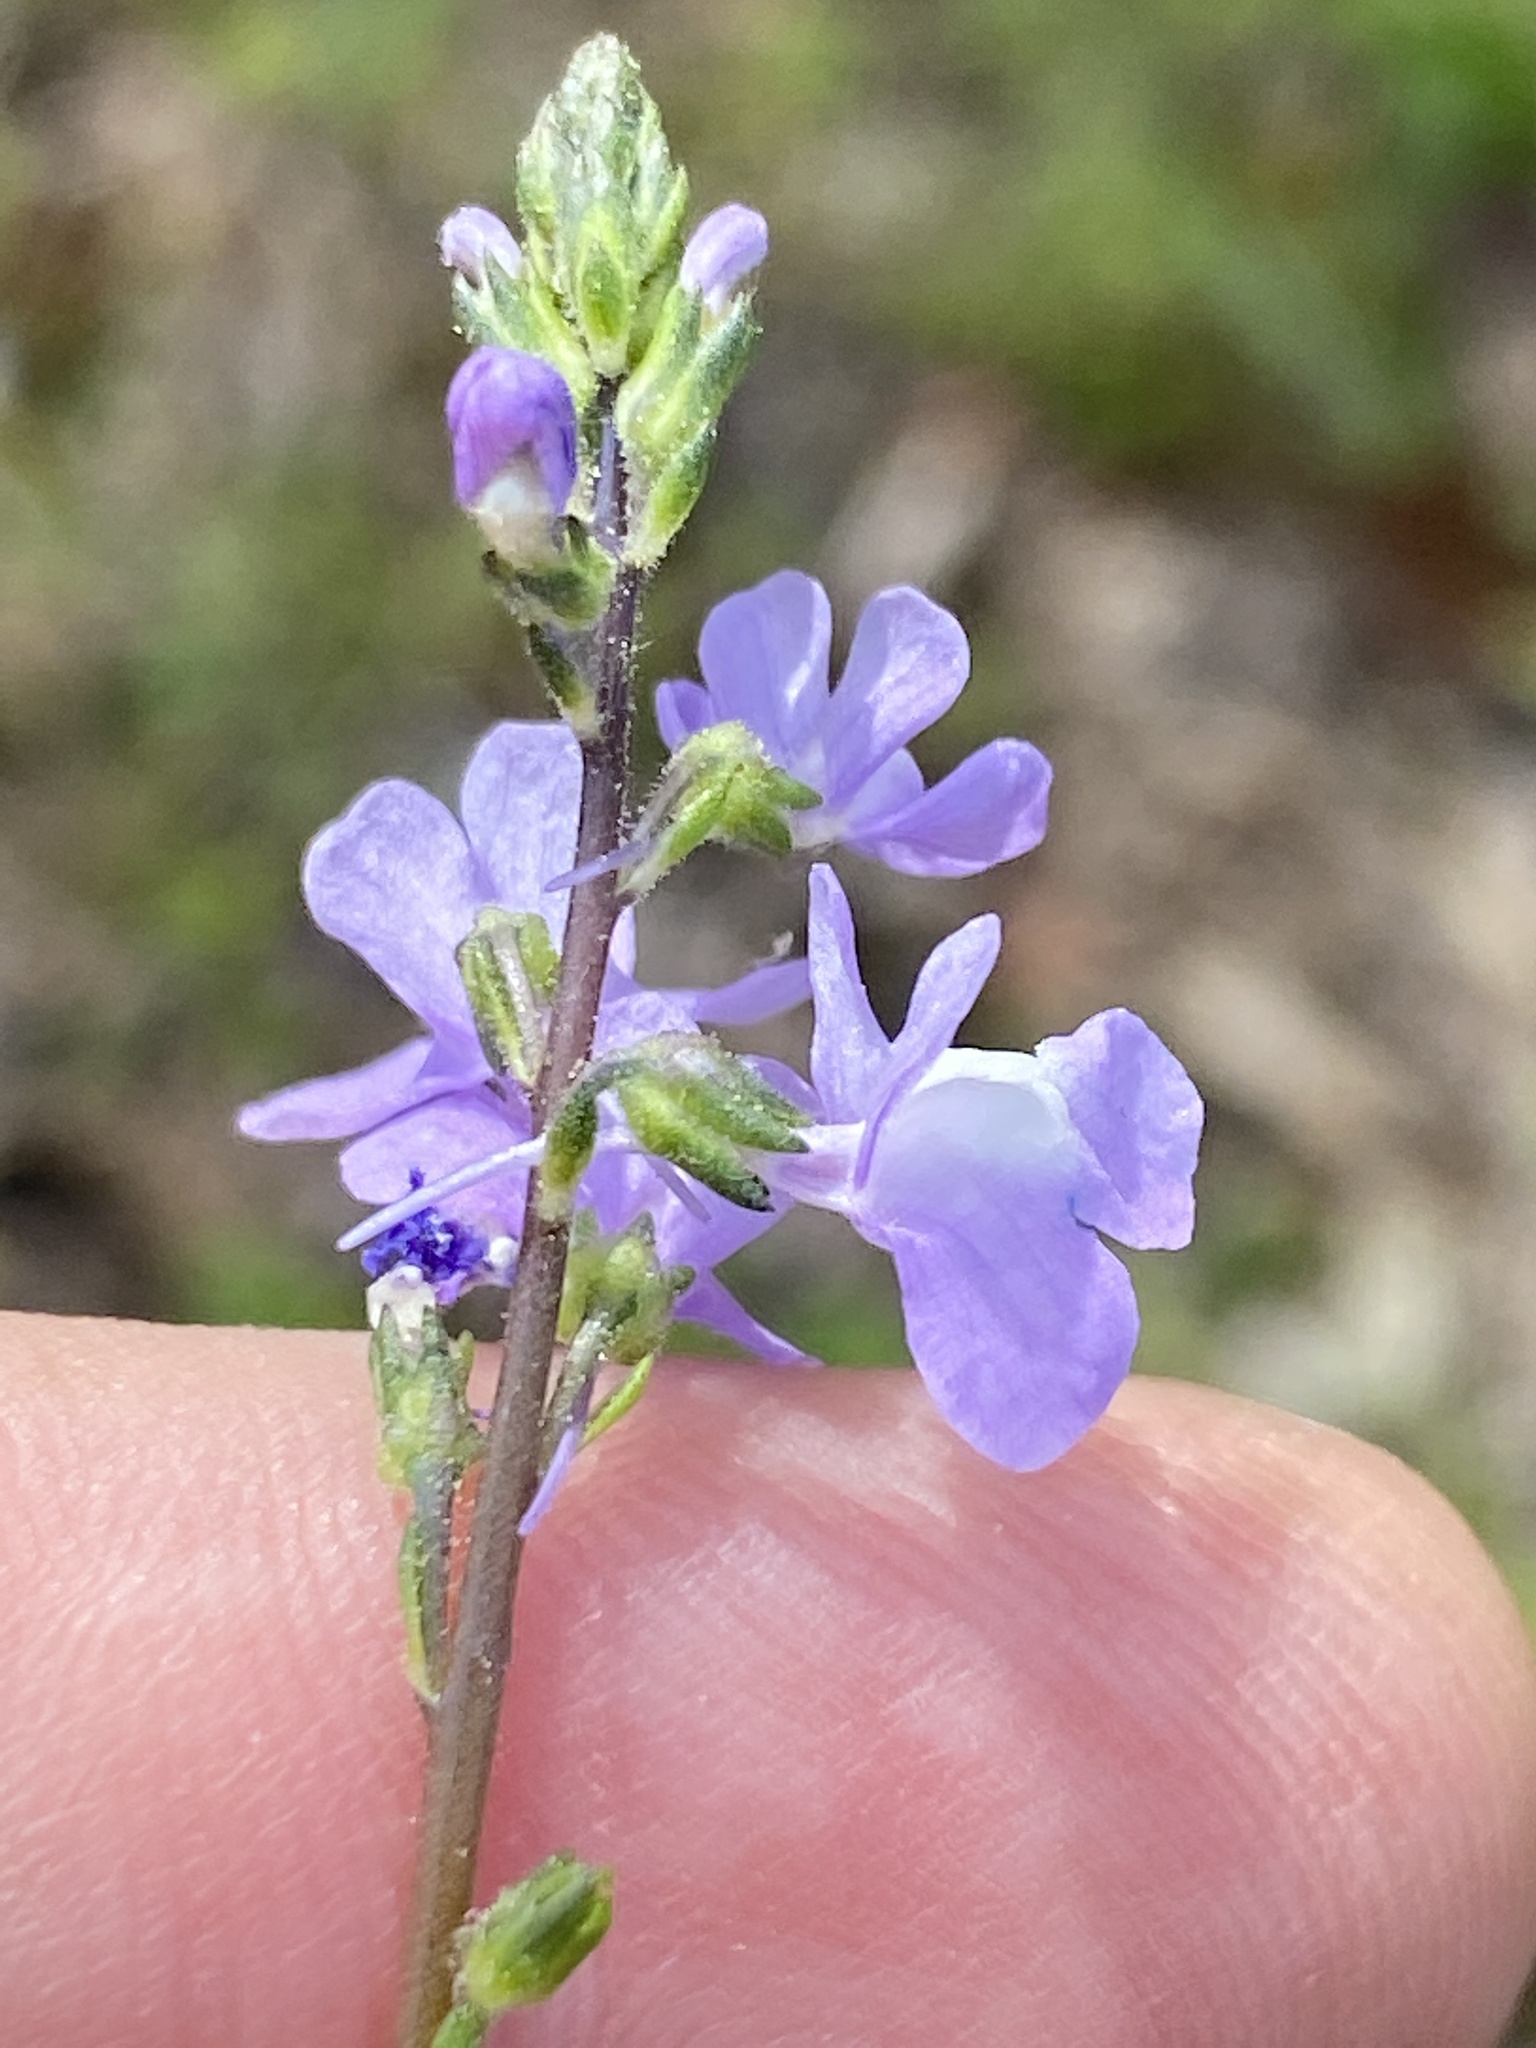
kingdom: Plantae
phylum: Tracheophyta
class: Magnoliopsida
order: Lamiales
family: Plantaginaceae
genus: Nuttallanthus
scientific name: Nuttallanthus canadensis
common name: Blue toadflax
